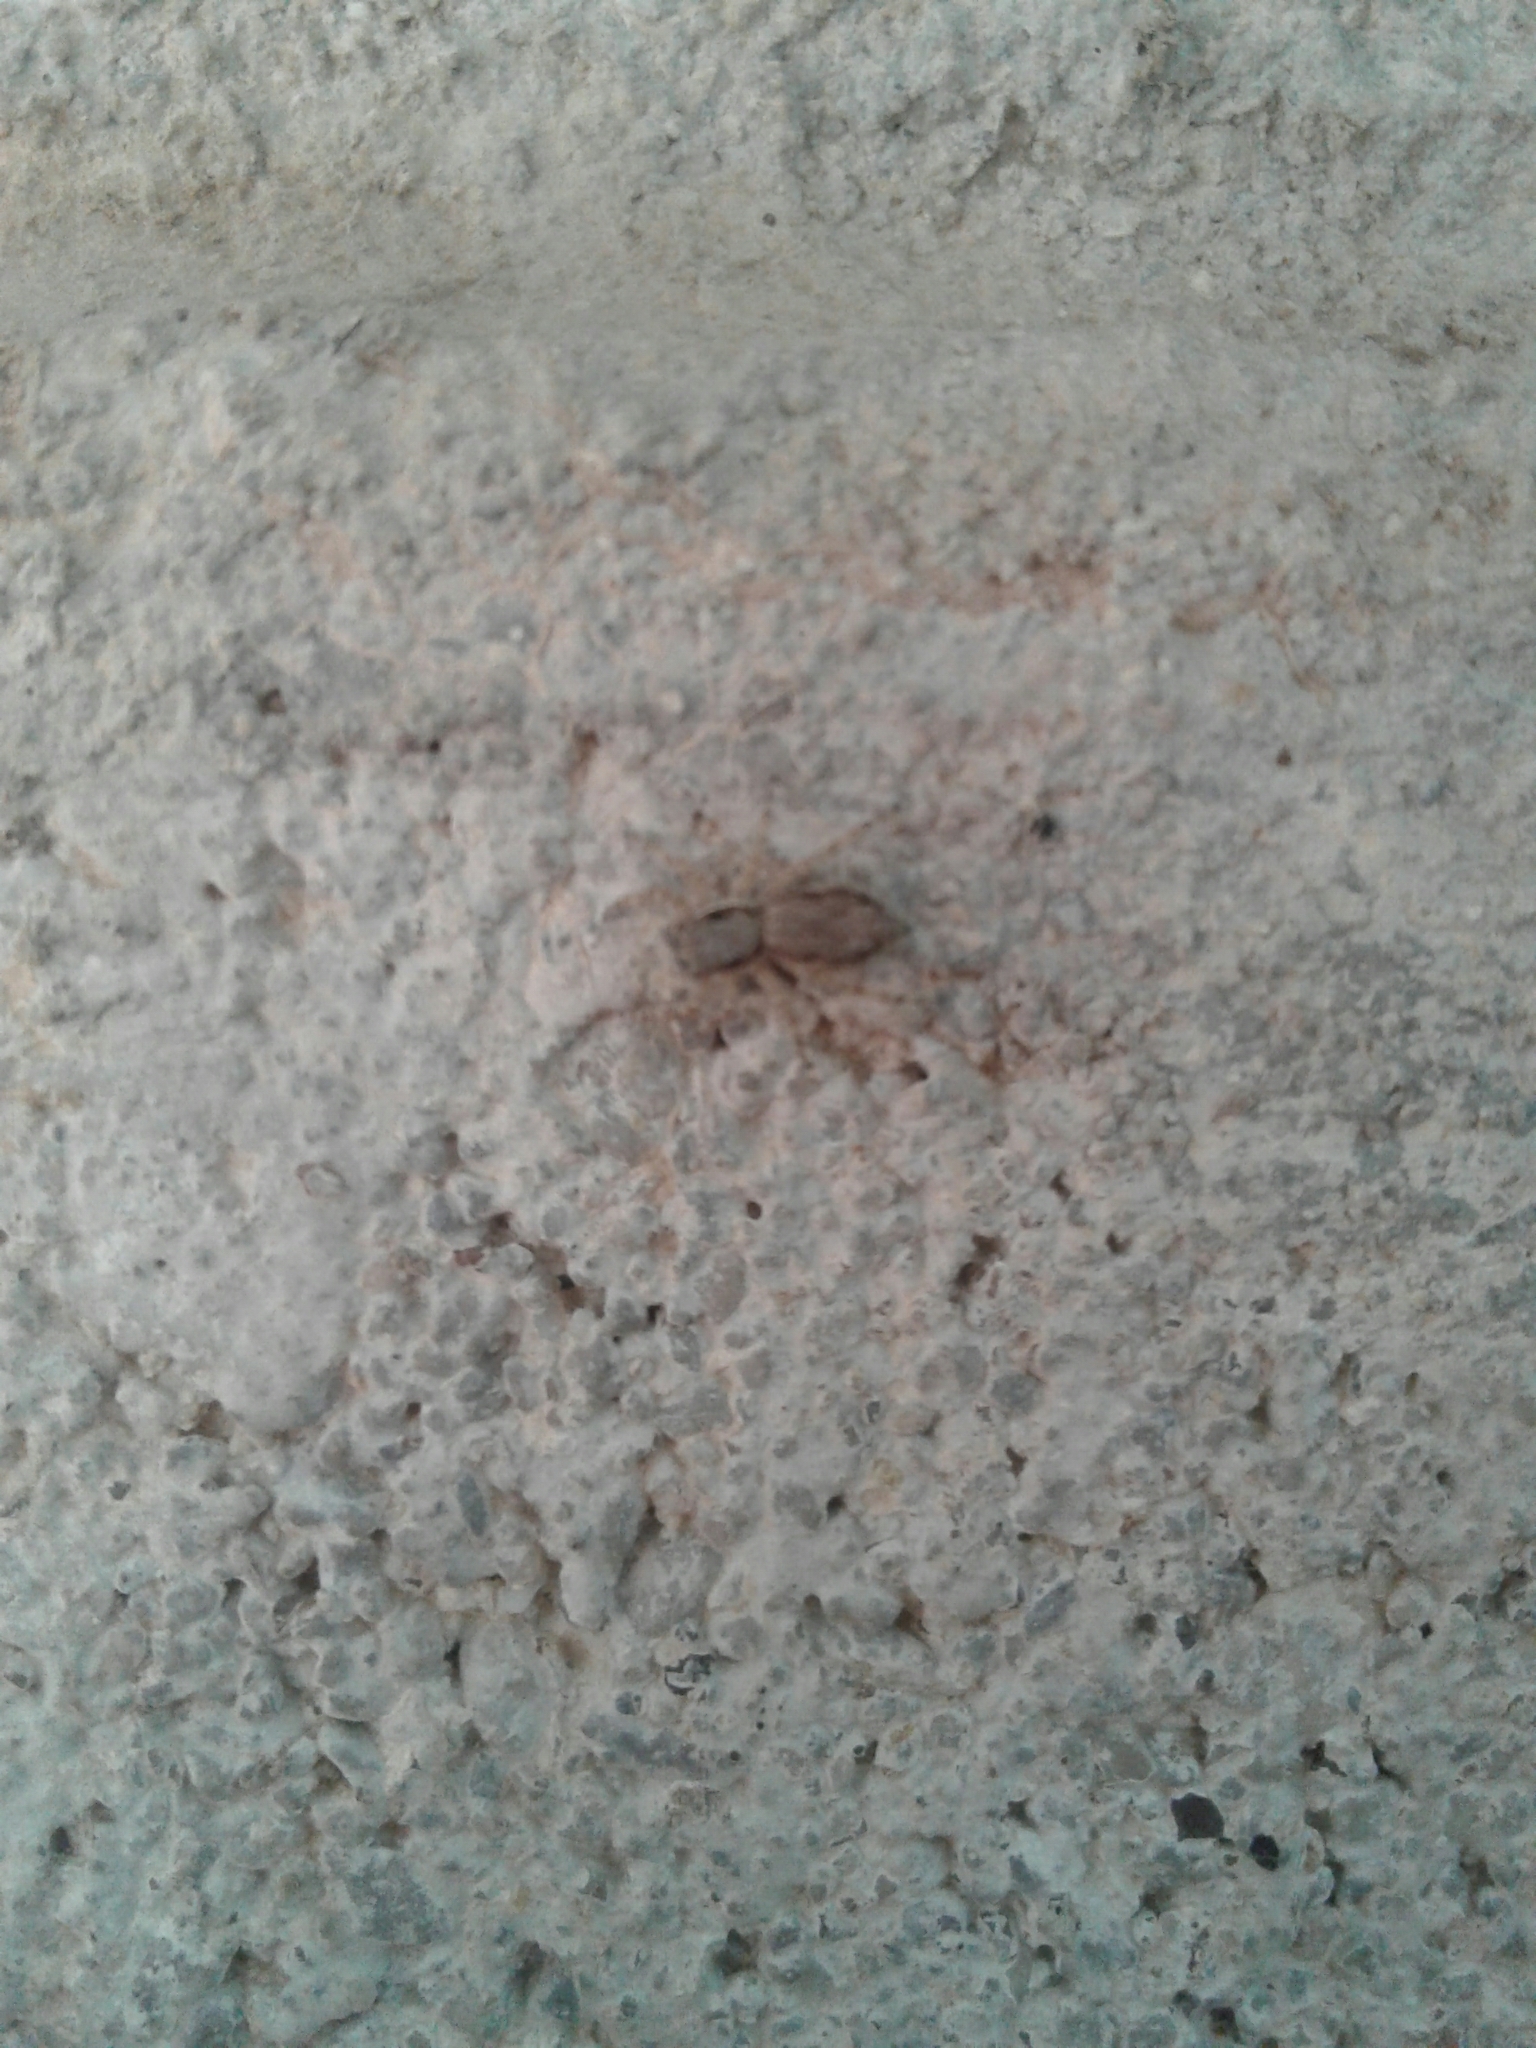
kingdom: Animalia
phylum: Arthropoda
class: Arachnida
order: Araneae
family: Salticidae
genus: Menemerus
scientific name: Menemerus bivittatus
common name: Gray wall jumper
